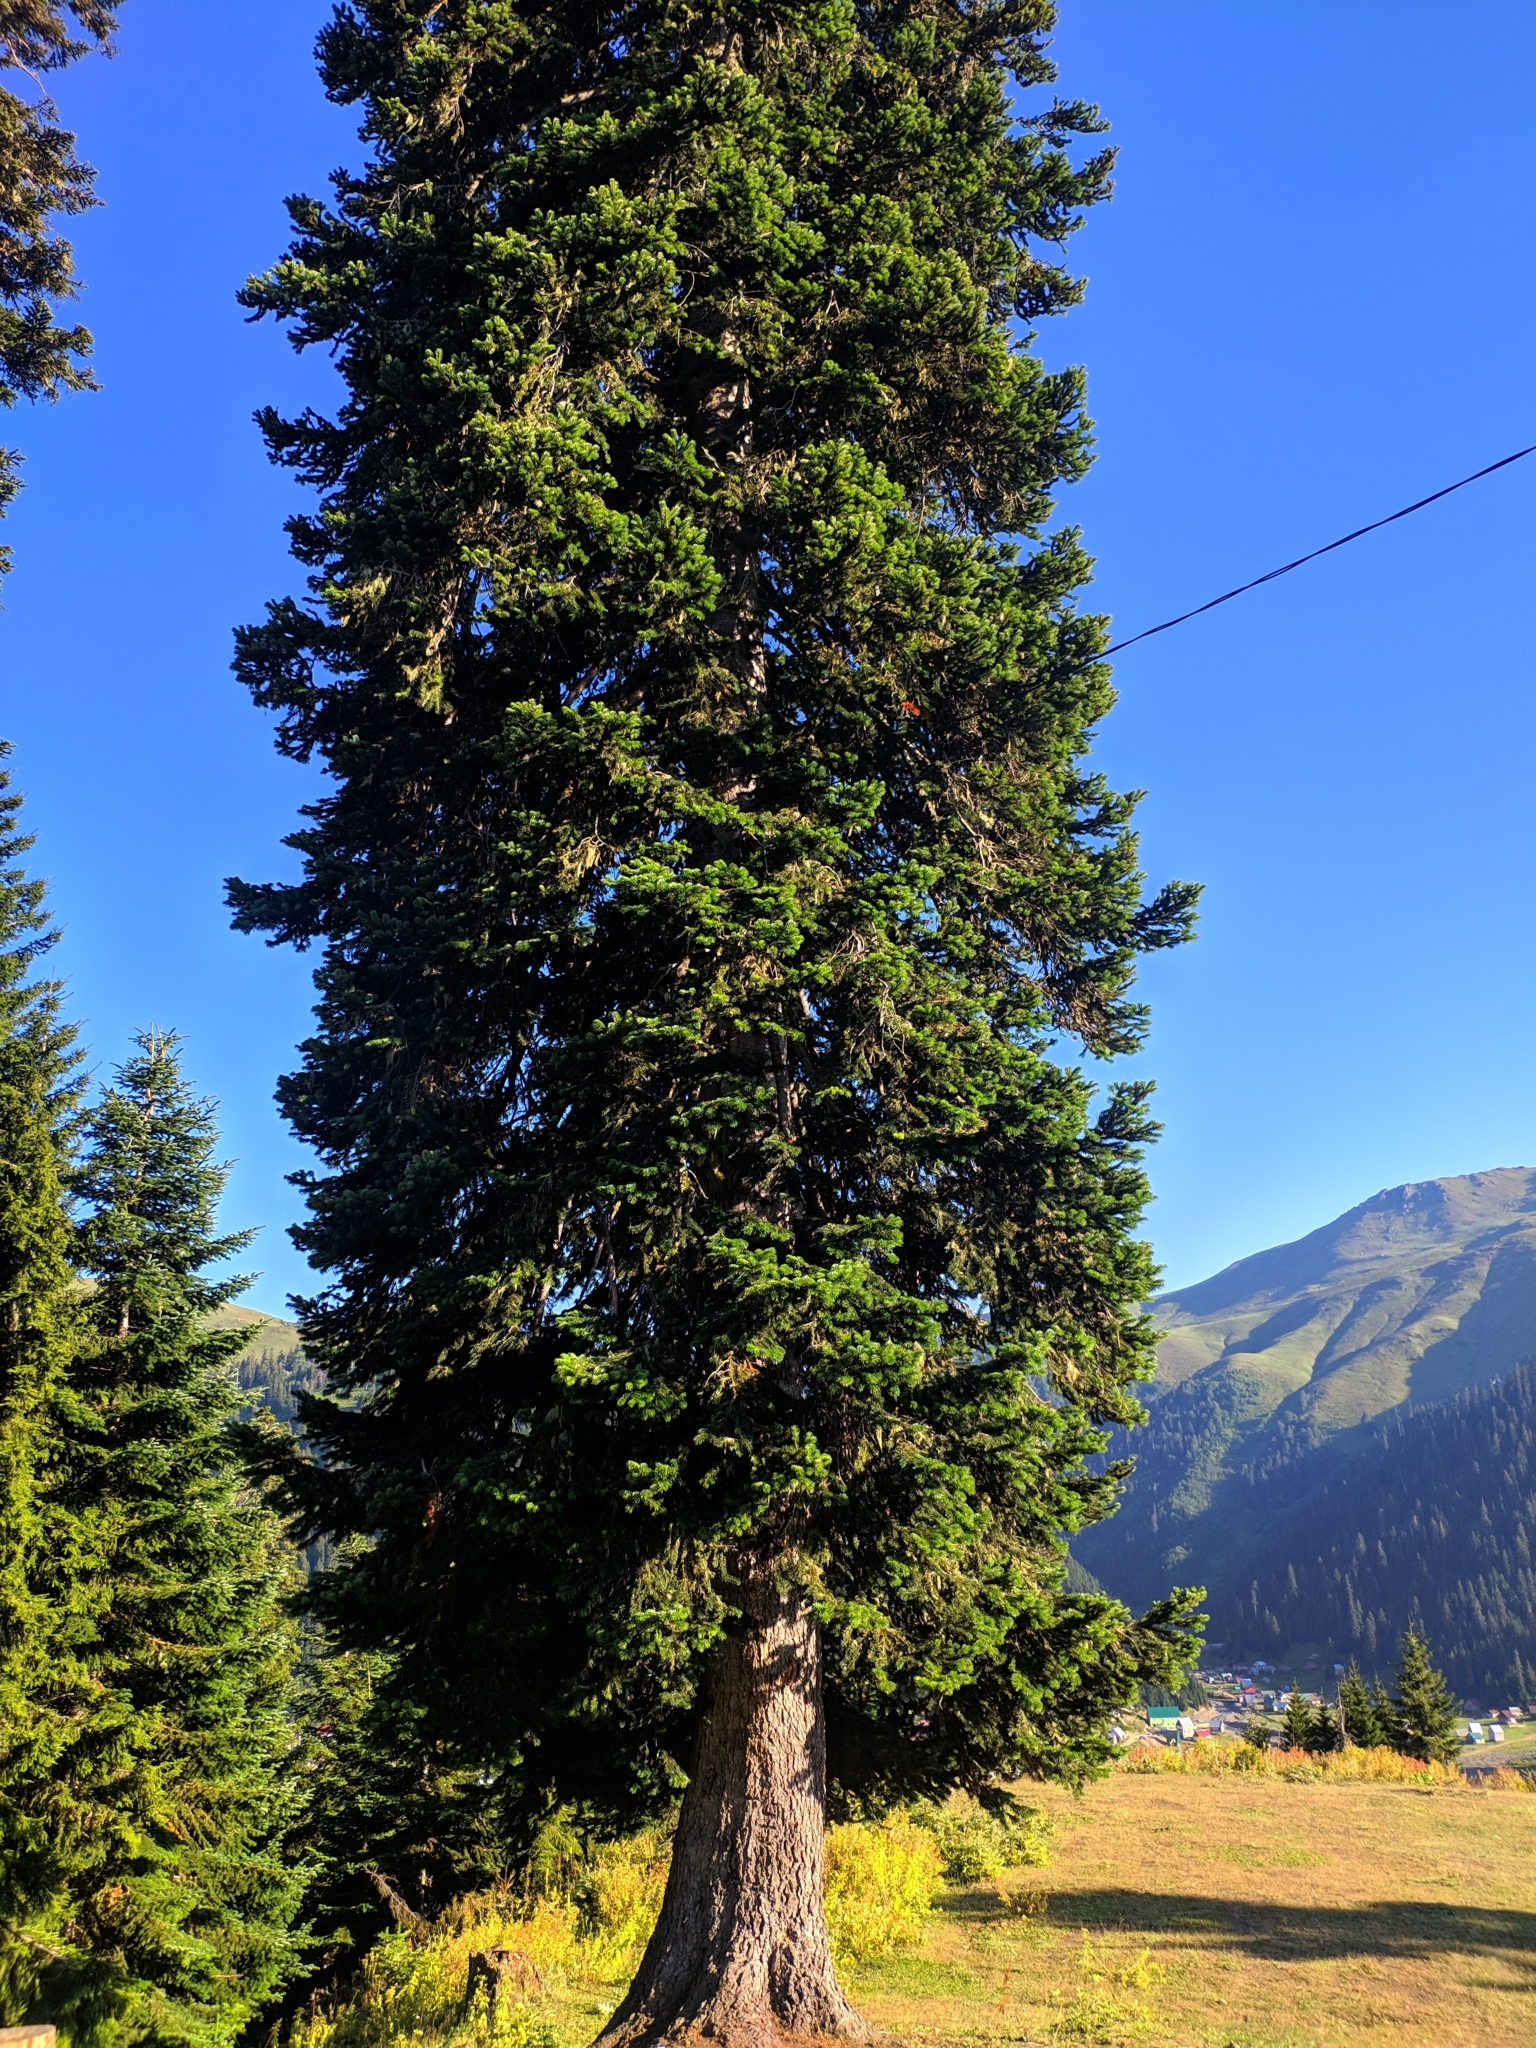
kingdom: Plantae
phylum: Tracheophyta
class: Pinopsida
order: Pinales
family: Pinaceae
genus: Abies
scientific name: Abies nordmanniana
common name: Caucasian fir
